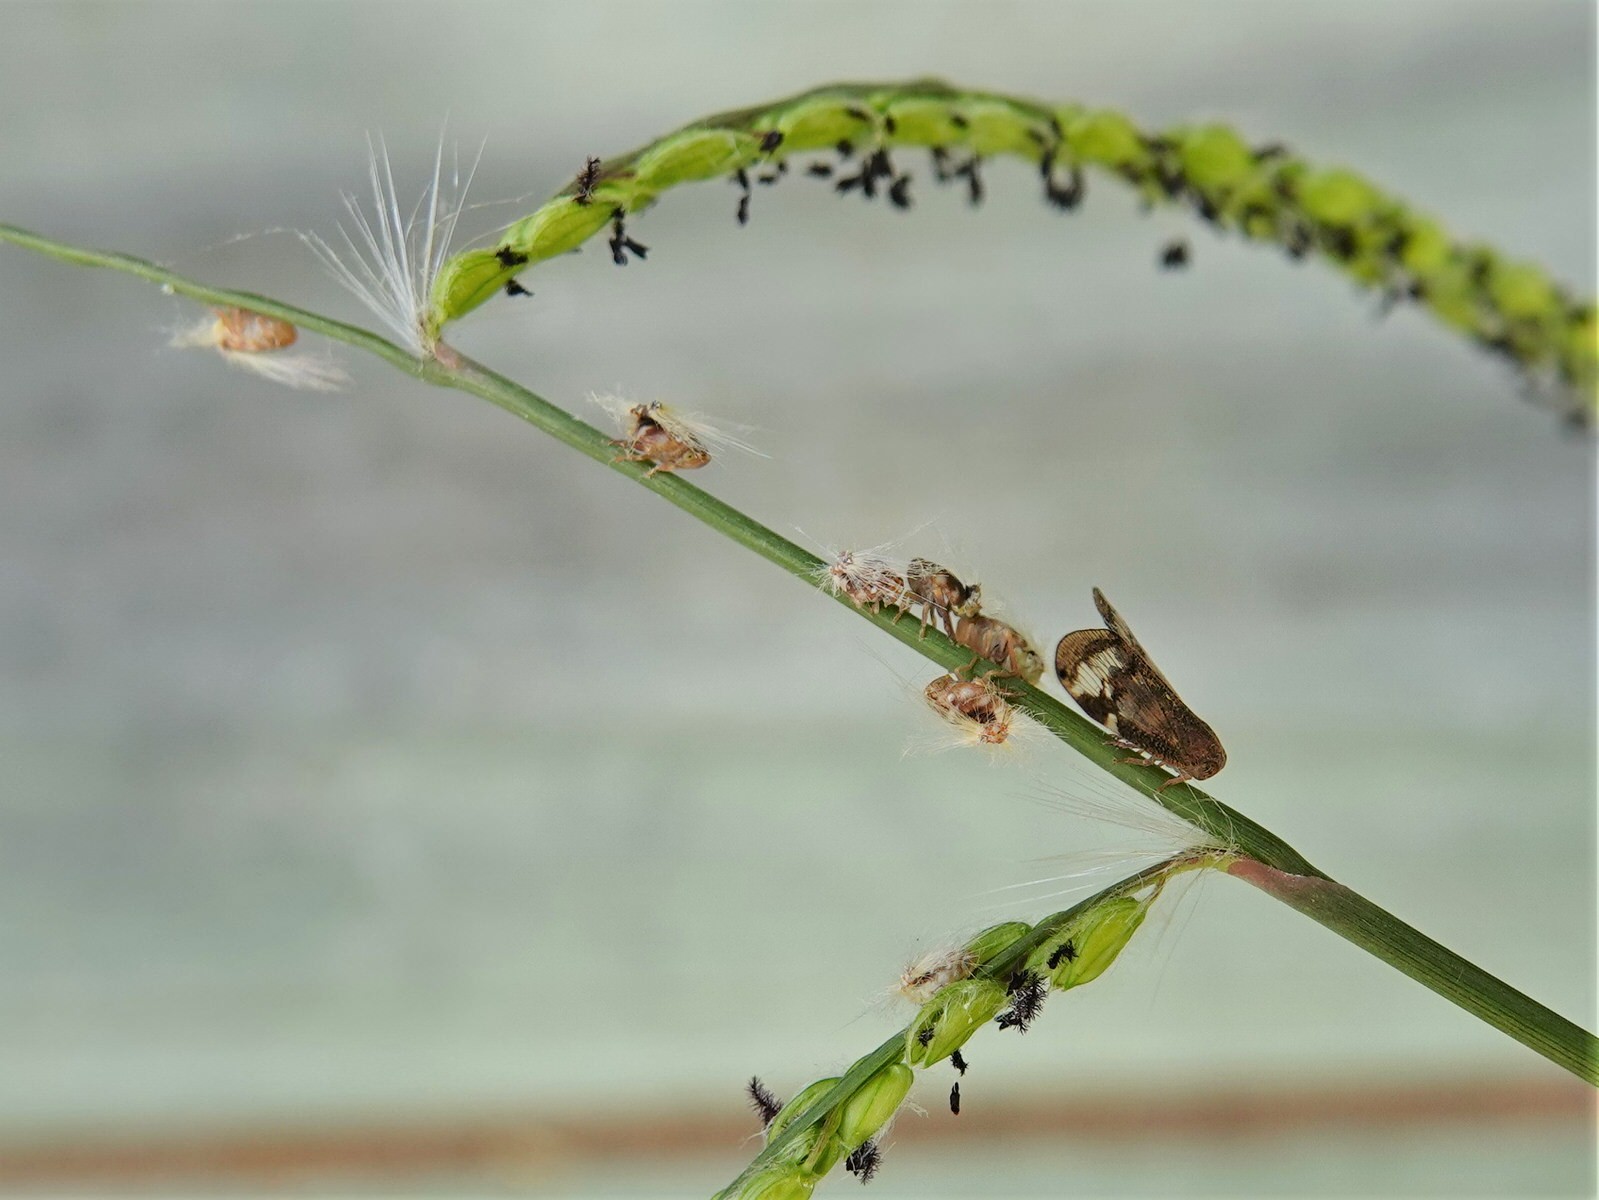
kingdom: Animalia
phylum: Arthropoda
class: Insecta
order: Hemiptera
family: Ricaniidae
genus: Scolypopa
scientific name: Scolypopa australis
